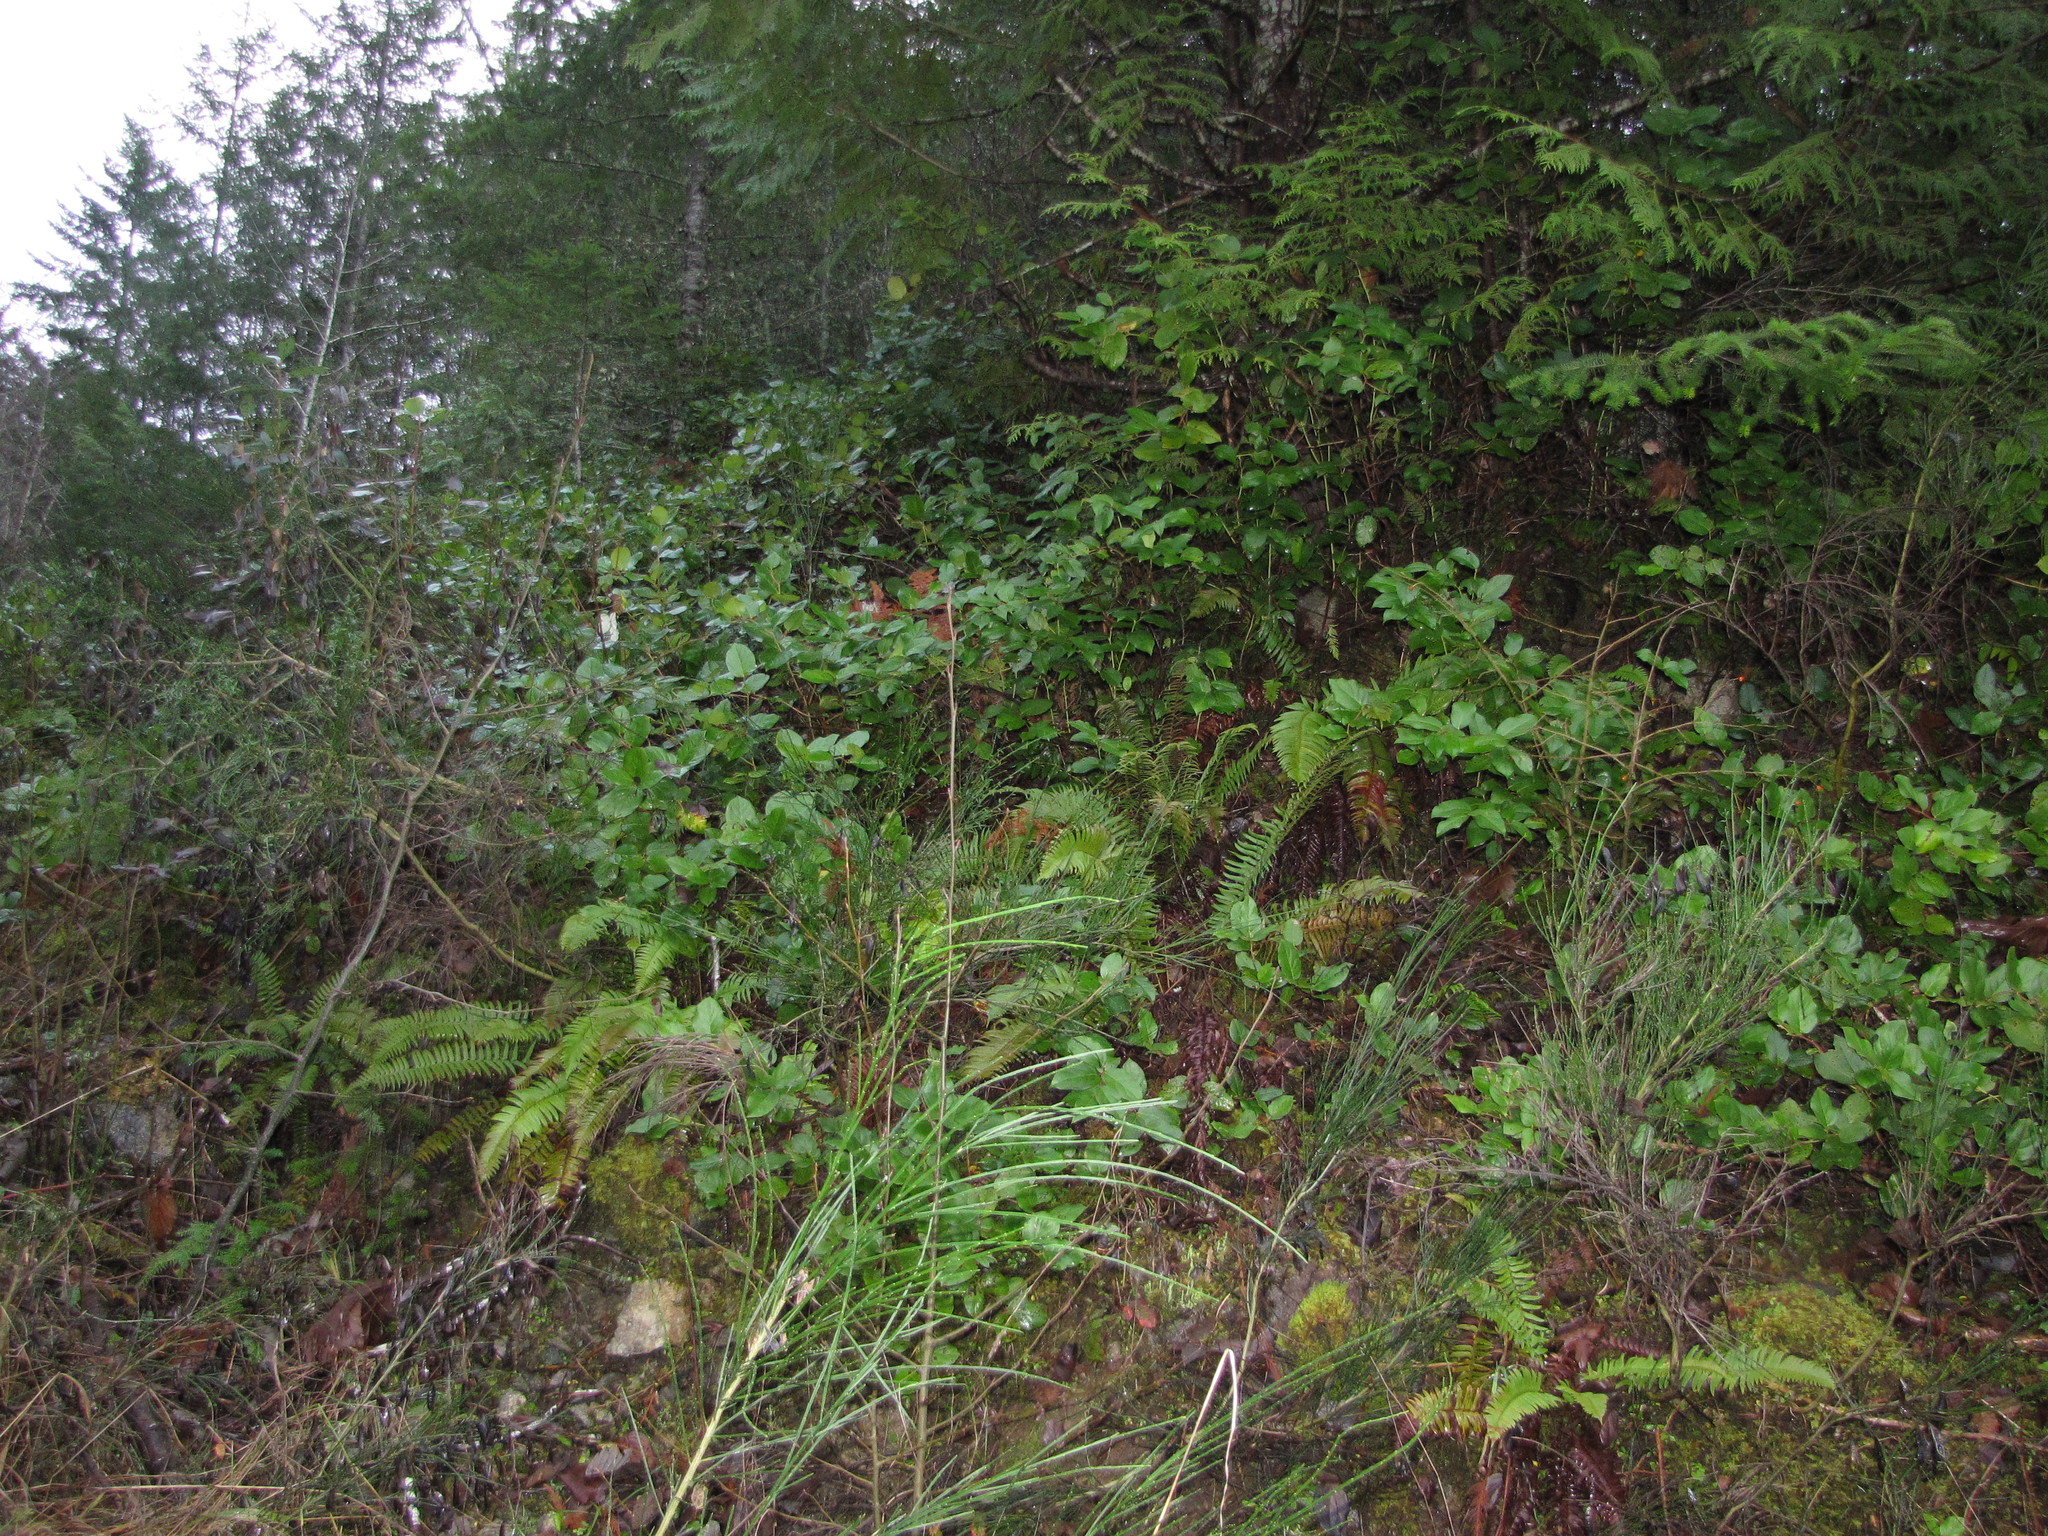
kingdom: Plantae
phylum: Tracheophyta
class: Magnoliopsida
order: Ericales
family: Ericaceae
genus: Gaultheria
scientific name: Gaultheria shallon
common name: Shallon
